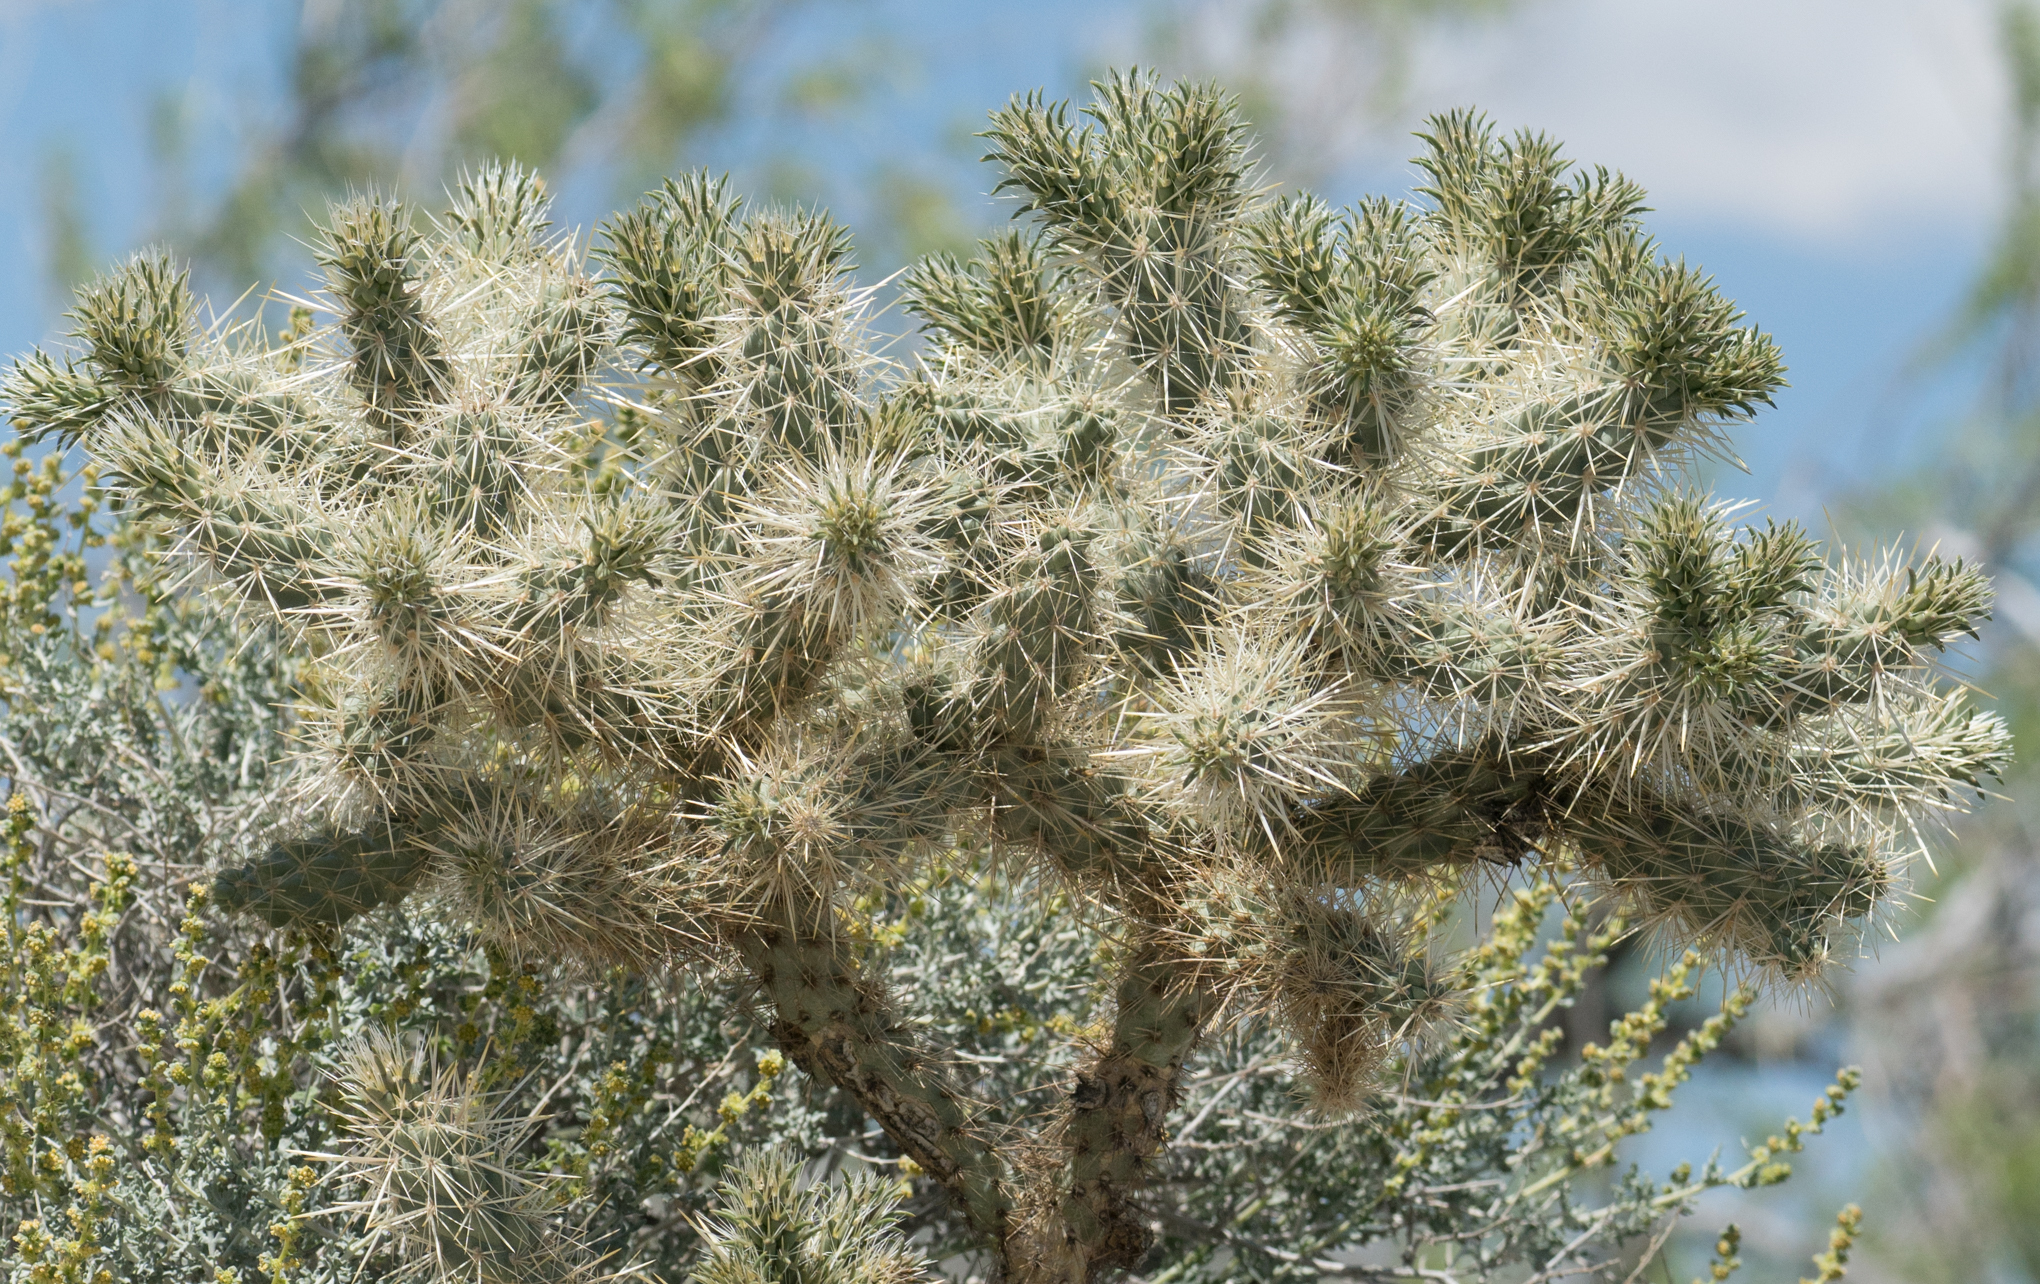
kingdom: Plantae
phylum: Tracheophyta
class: Magnoliopsida
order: Caryophyllales
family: Cactaceae
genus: Cylindropuntia
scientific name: Cylindropuntia echinocarpa
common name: Ground cholla
